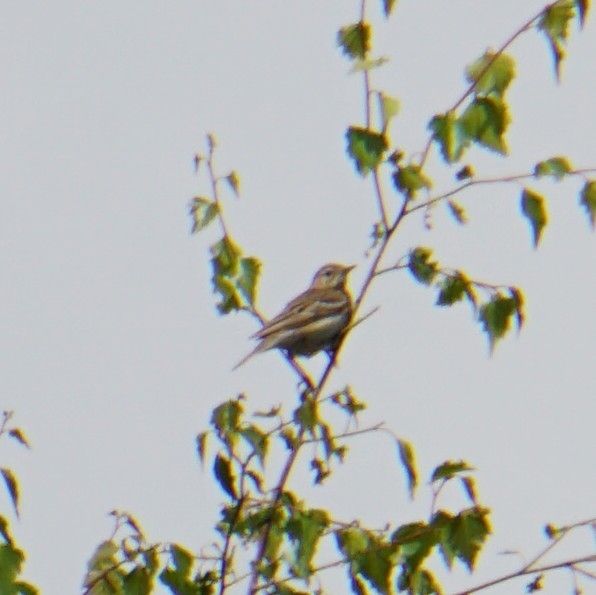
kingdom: Animalia
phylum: Chordata
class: Aves
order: Passeriformes
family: Motacillidae
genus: Anthus
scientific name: Anthus trivialis
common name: Tree pipit
